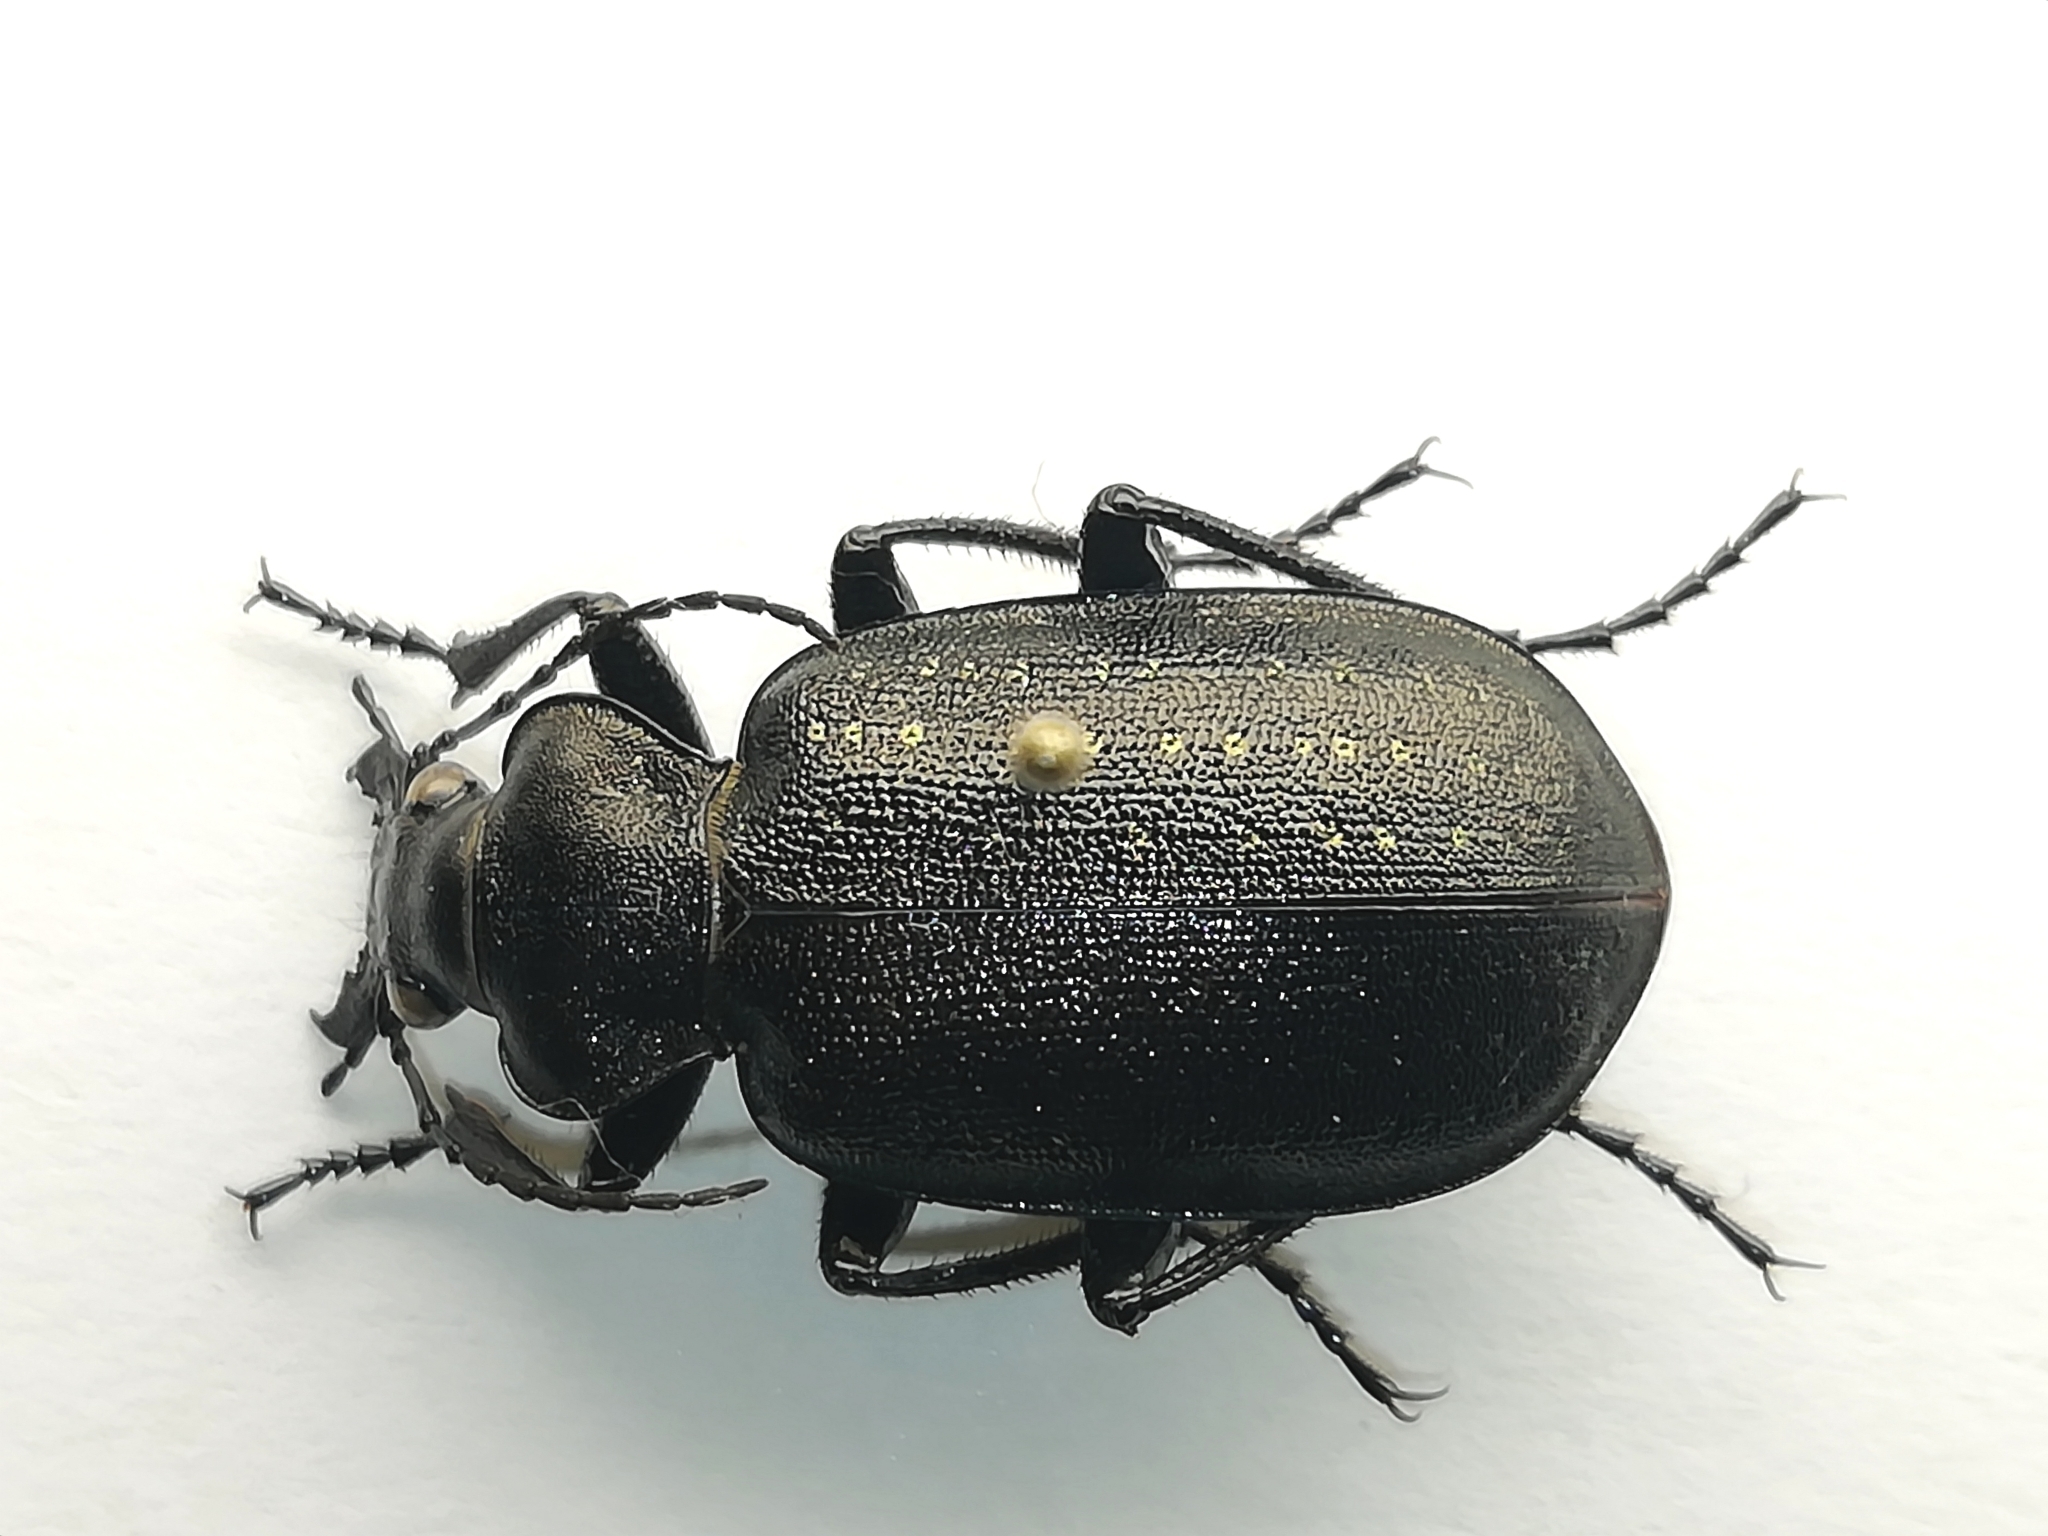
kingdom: Animalia
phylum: Arthropoda
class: Insecta
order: Coleoptera
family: Carabidae
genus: Calosoma
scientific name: Calosoma denticolle
